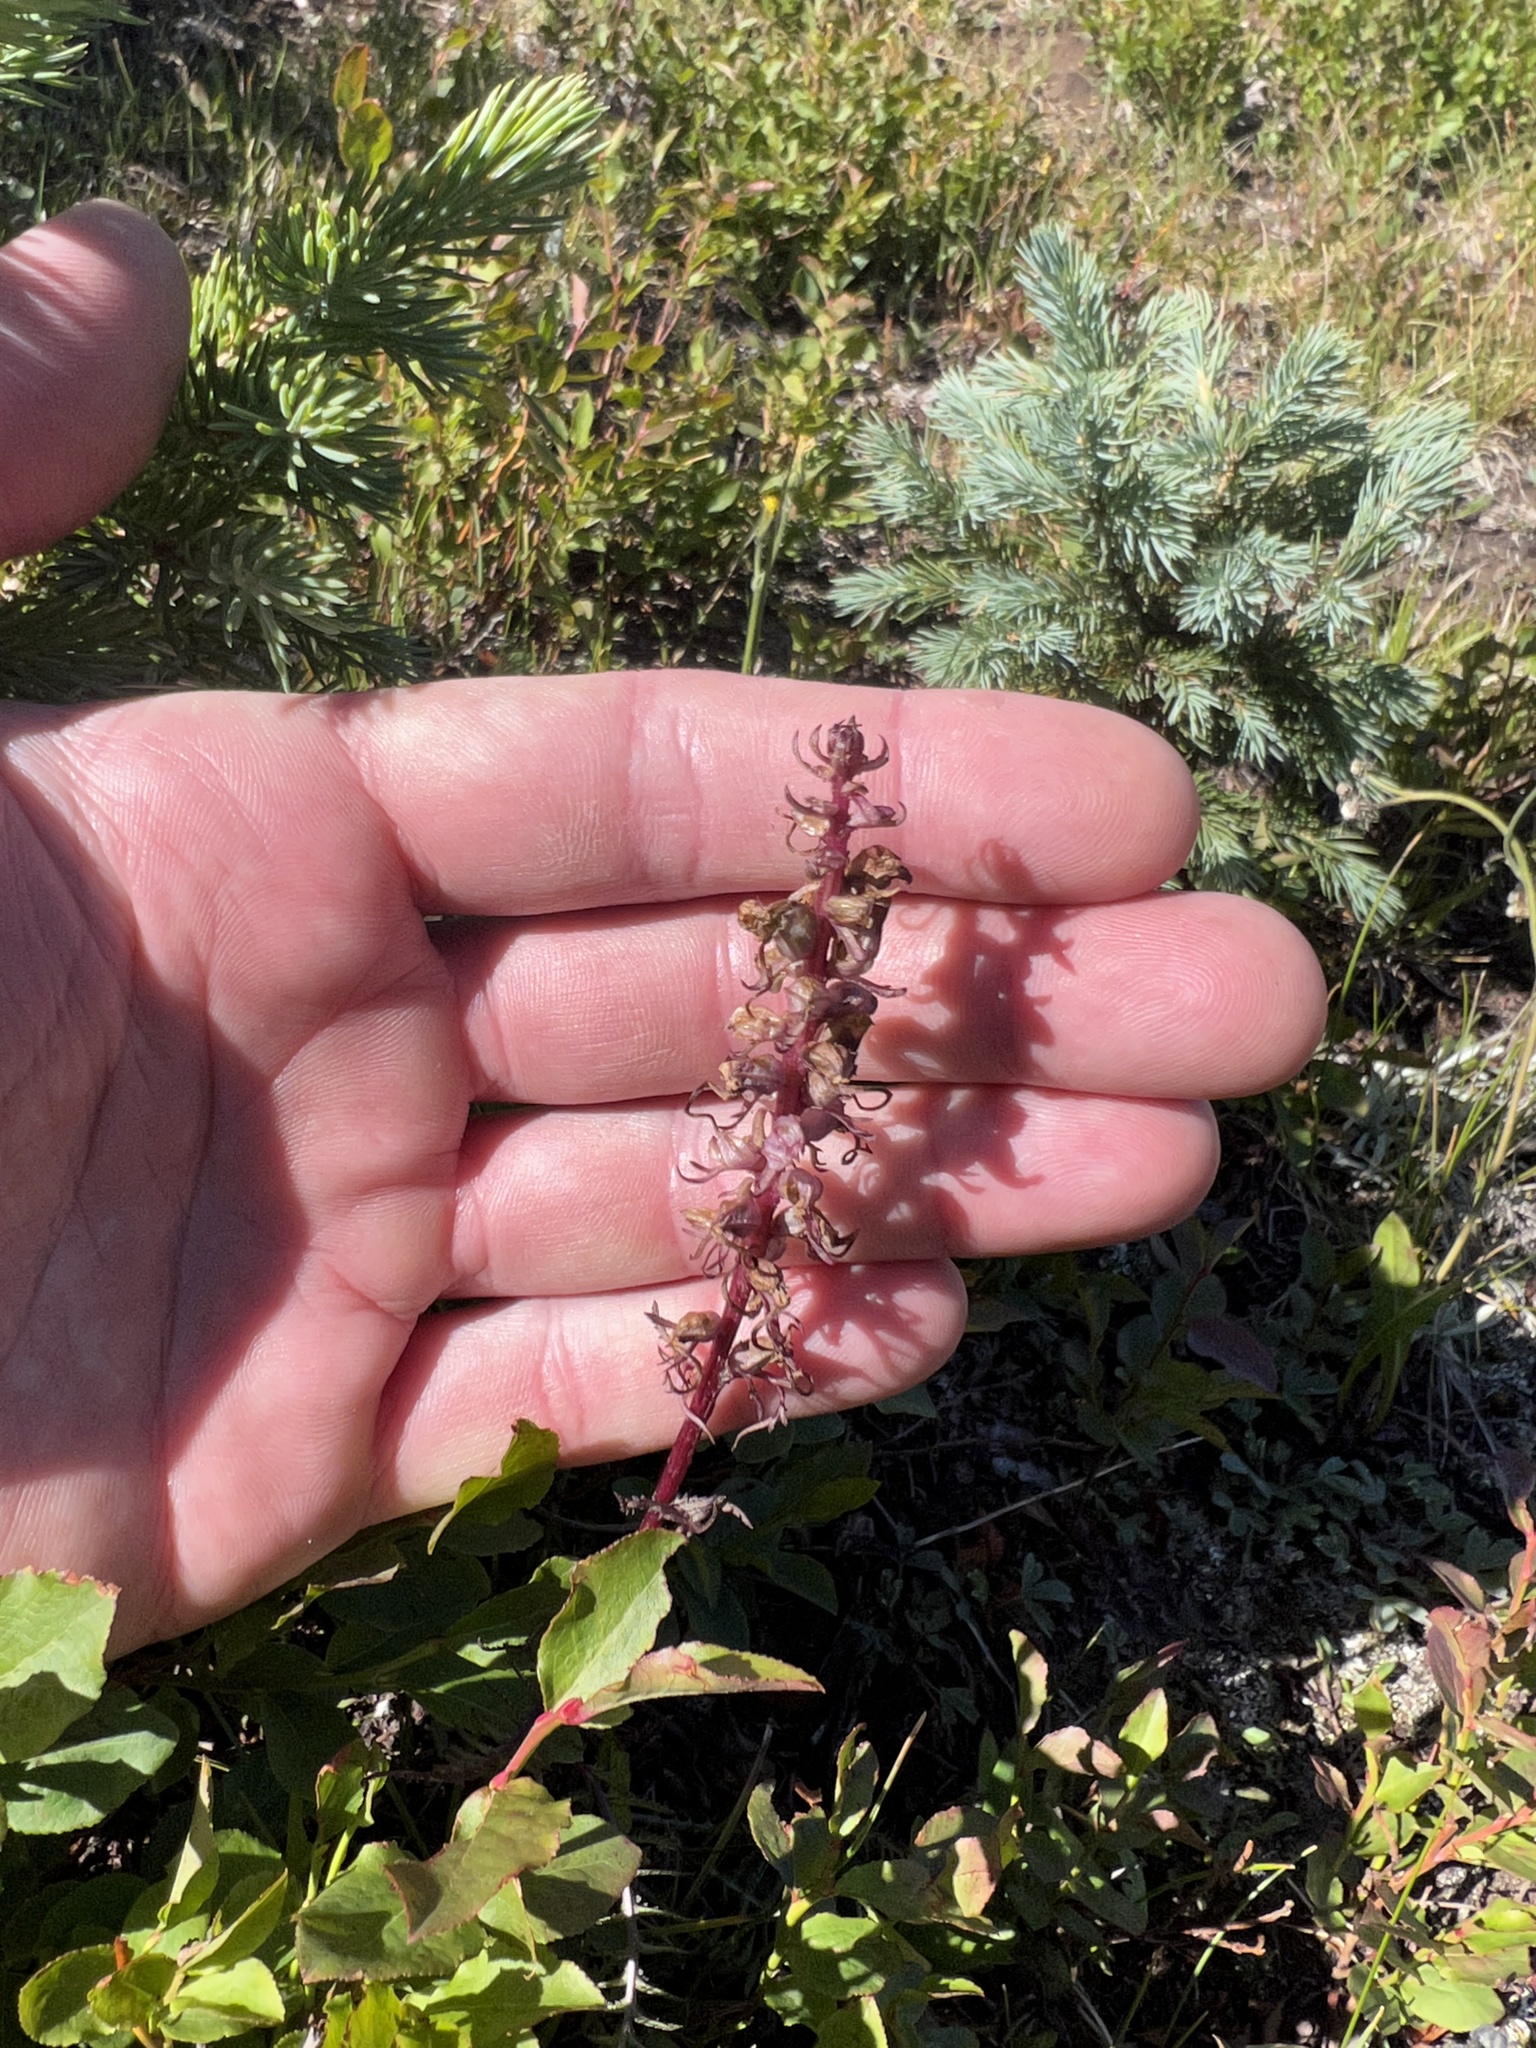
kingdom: Plantae
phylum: Tracheophyta
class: Magnoliopsida
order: Lamiales
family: Orobanchaceae
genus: Pedicularis
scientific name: Pedicularis groenlandica
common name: Elephant's-head
